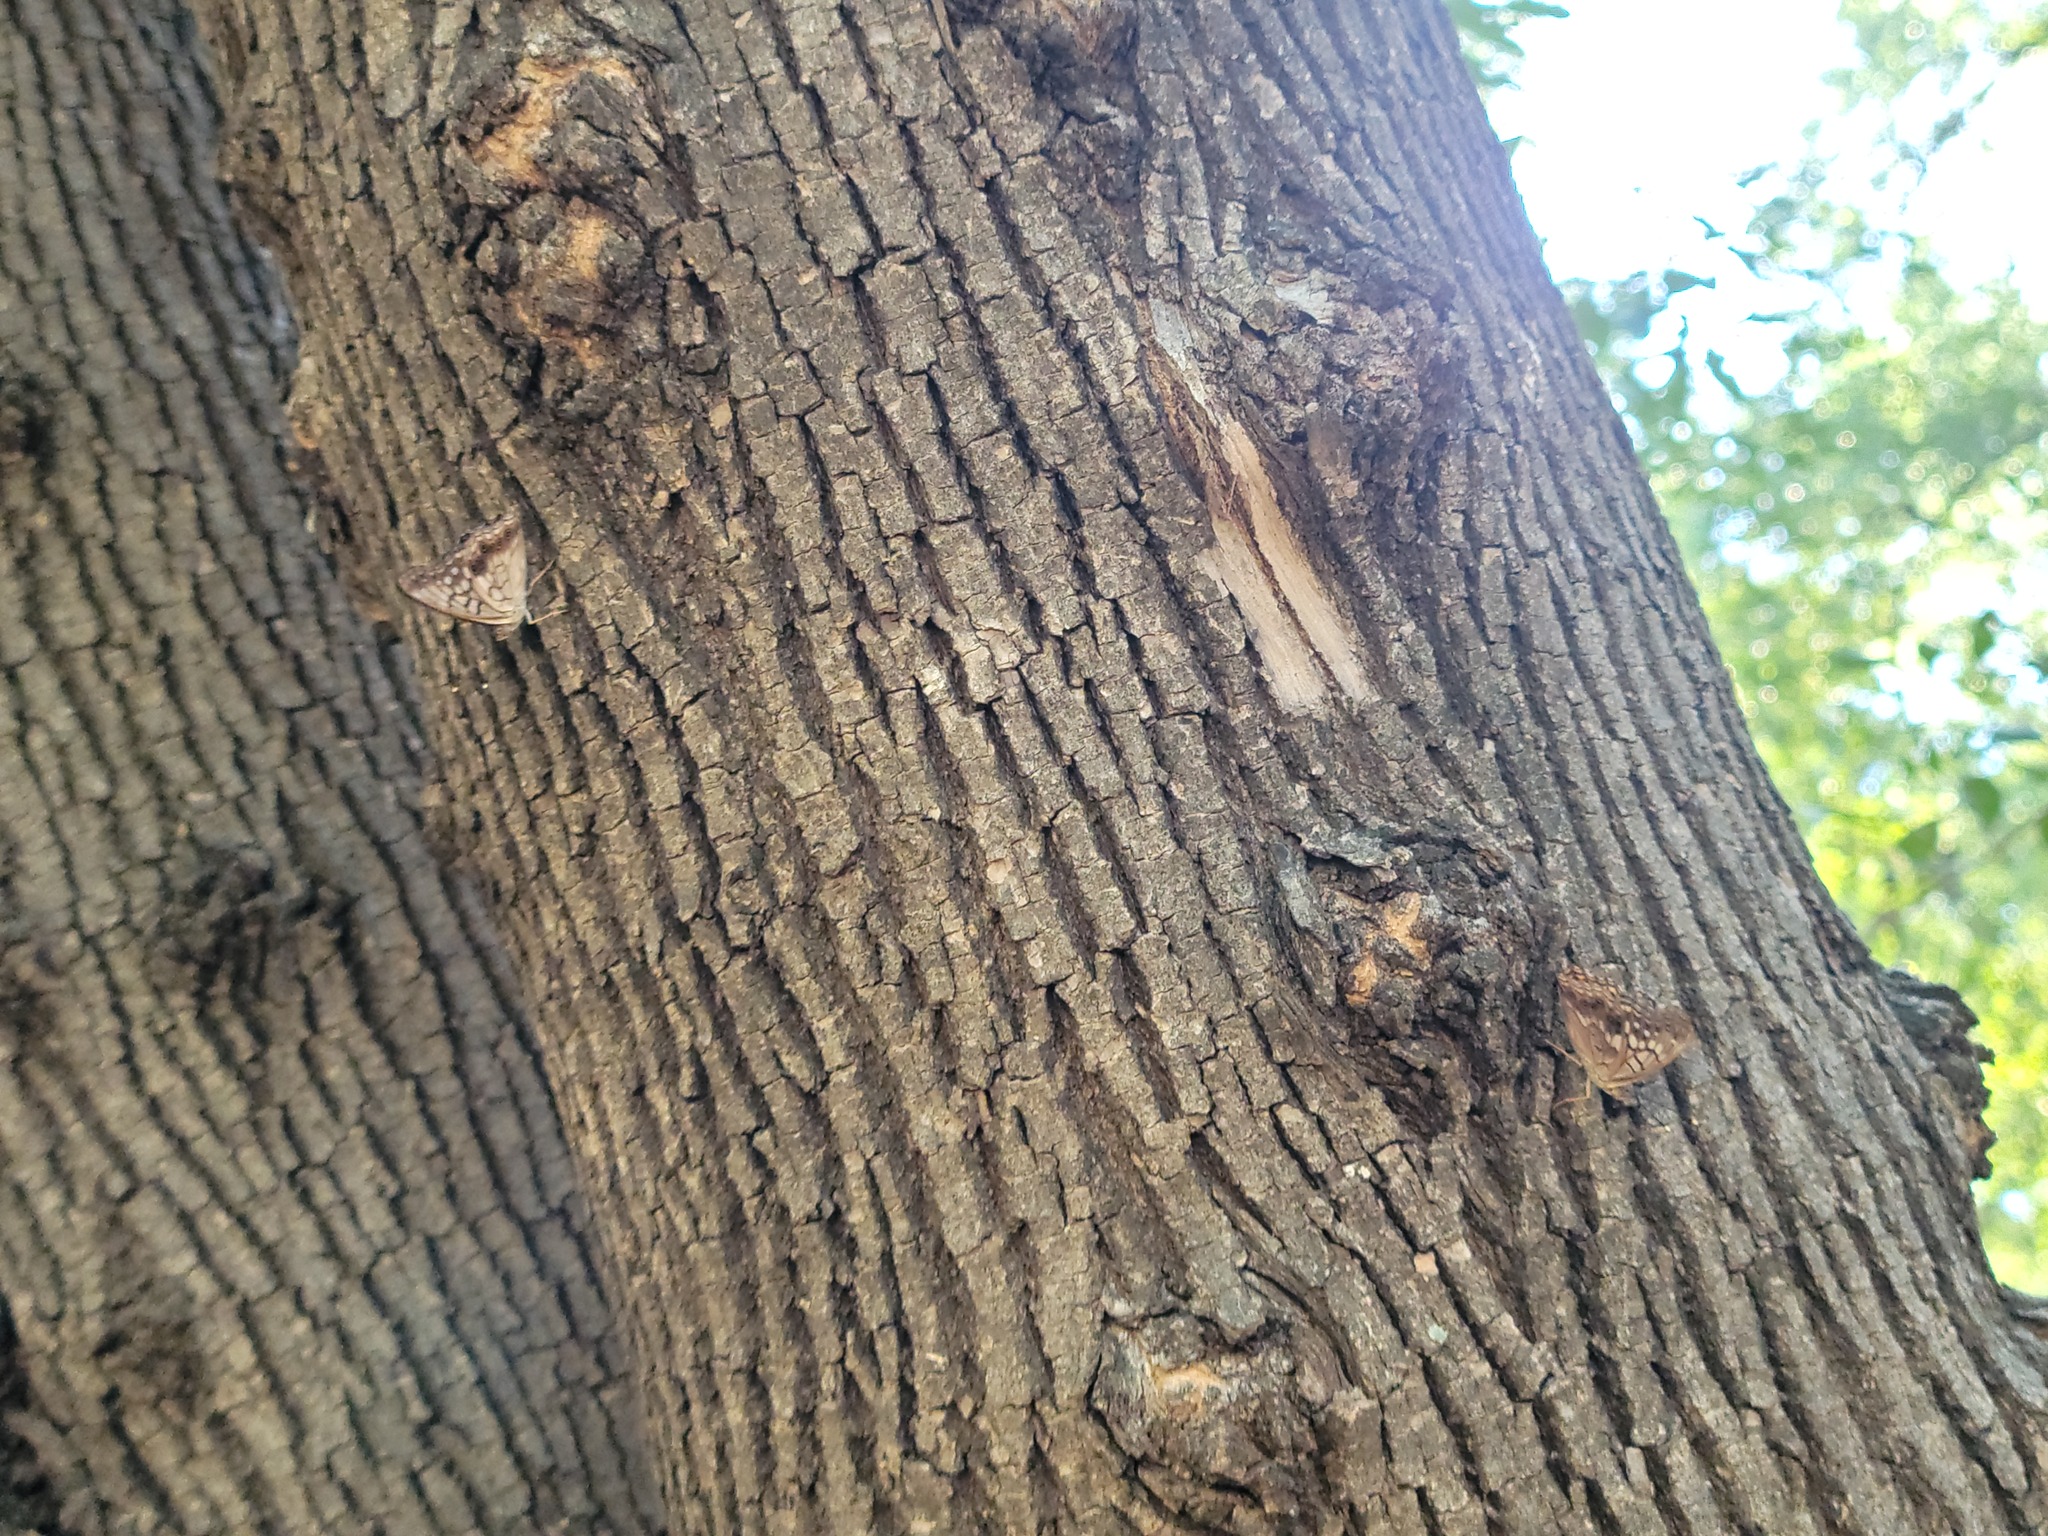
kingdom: Animalia
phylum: Arthropoda
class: Insecta
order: Lepidoptera
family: Nymphalidae
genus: Asterocampa
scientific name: Asterocampa clyton
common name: Tawny emperor
